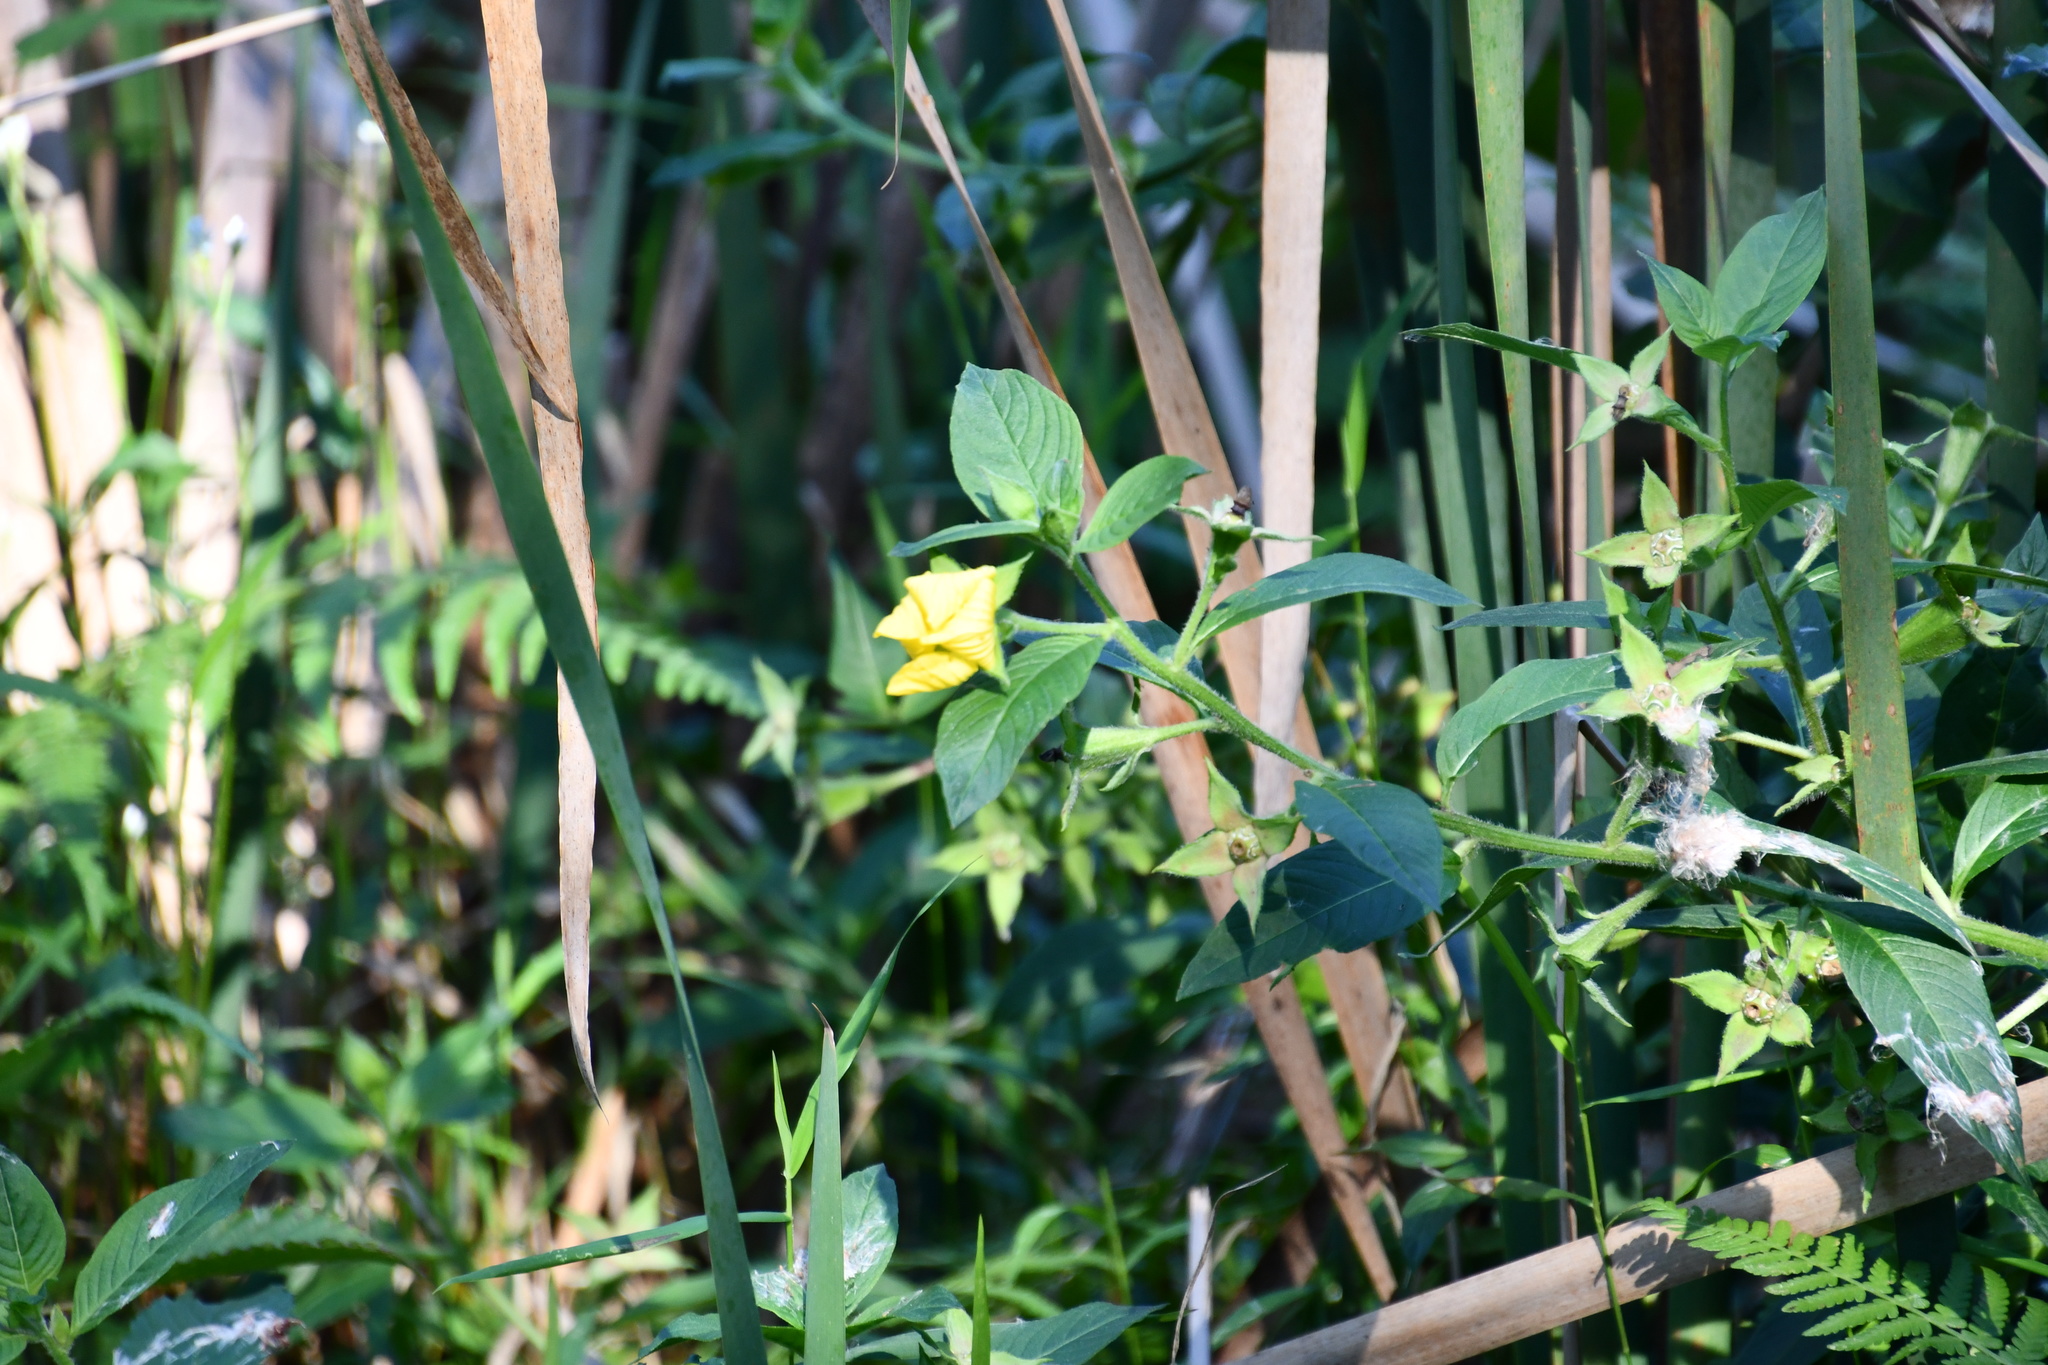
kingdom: Plantae
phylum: Tracheophyta
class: Magnoliopsida
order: Myrtales
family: Onagraceae
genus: Ludwigia
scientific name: Ludwigia peruviana
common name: Peruvian primrose-willow
